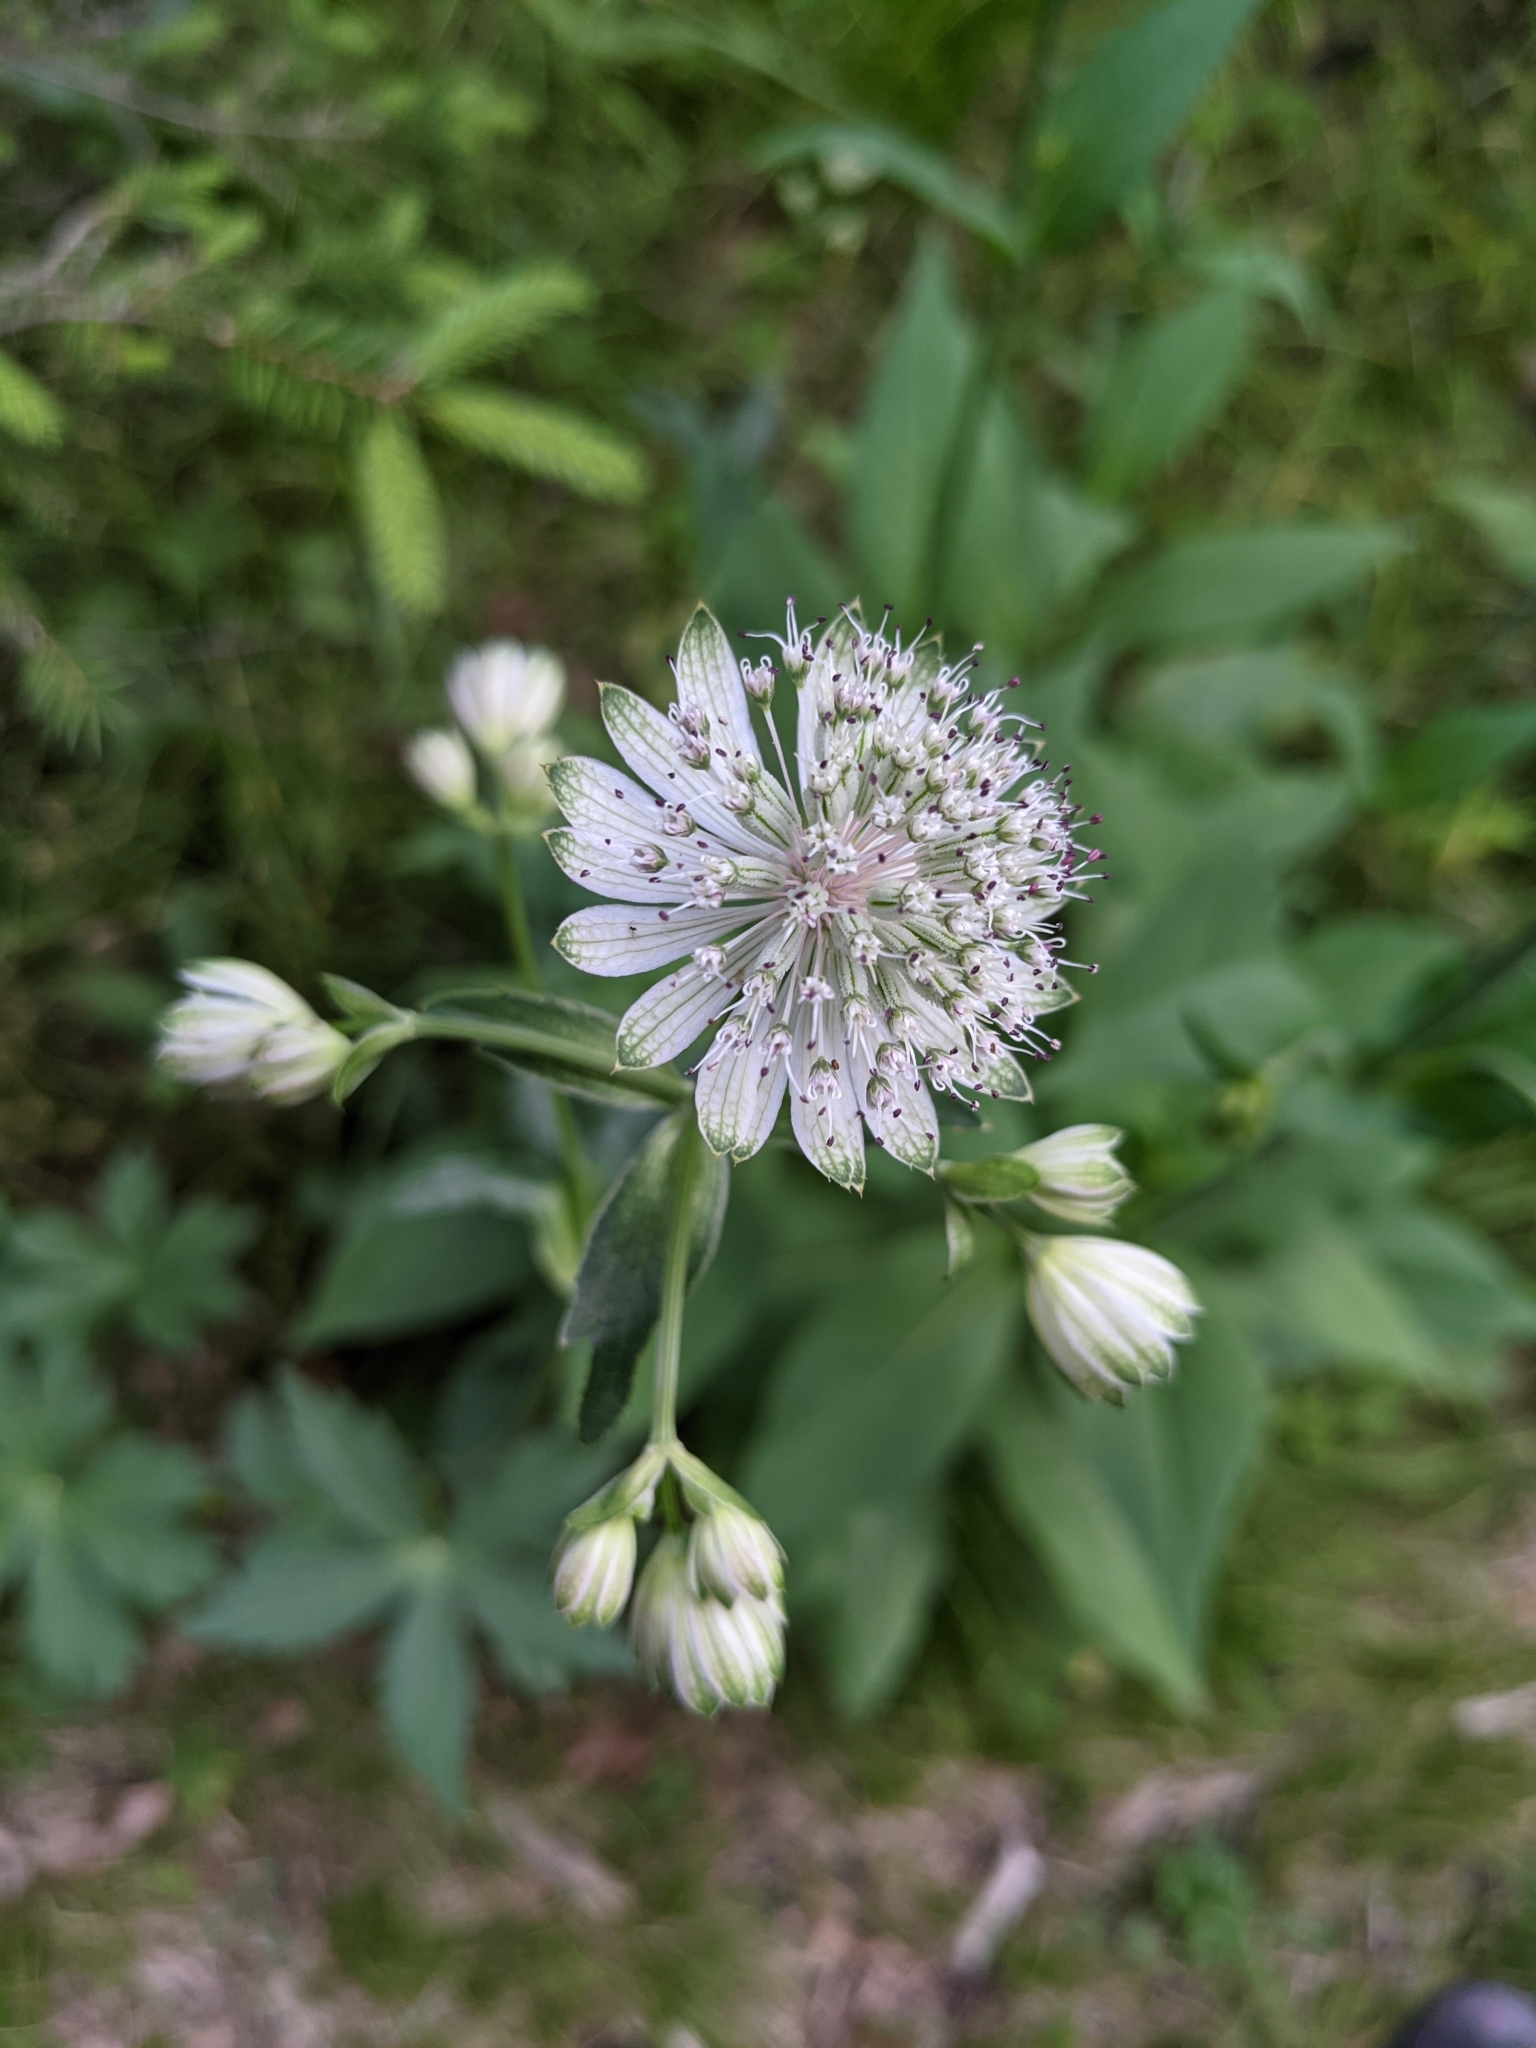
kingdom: Plantae
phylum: Tracheophyta
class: Magnoliopsida
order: Apiales
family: Apiaceae
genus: Astrantia
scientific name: Astrantia major
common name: Greater masterwort
